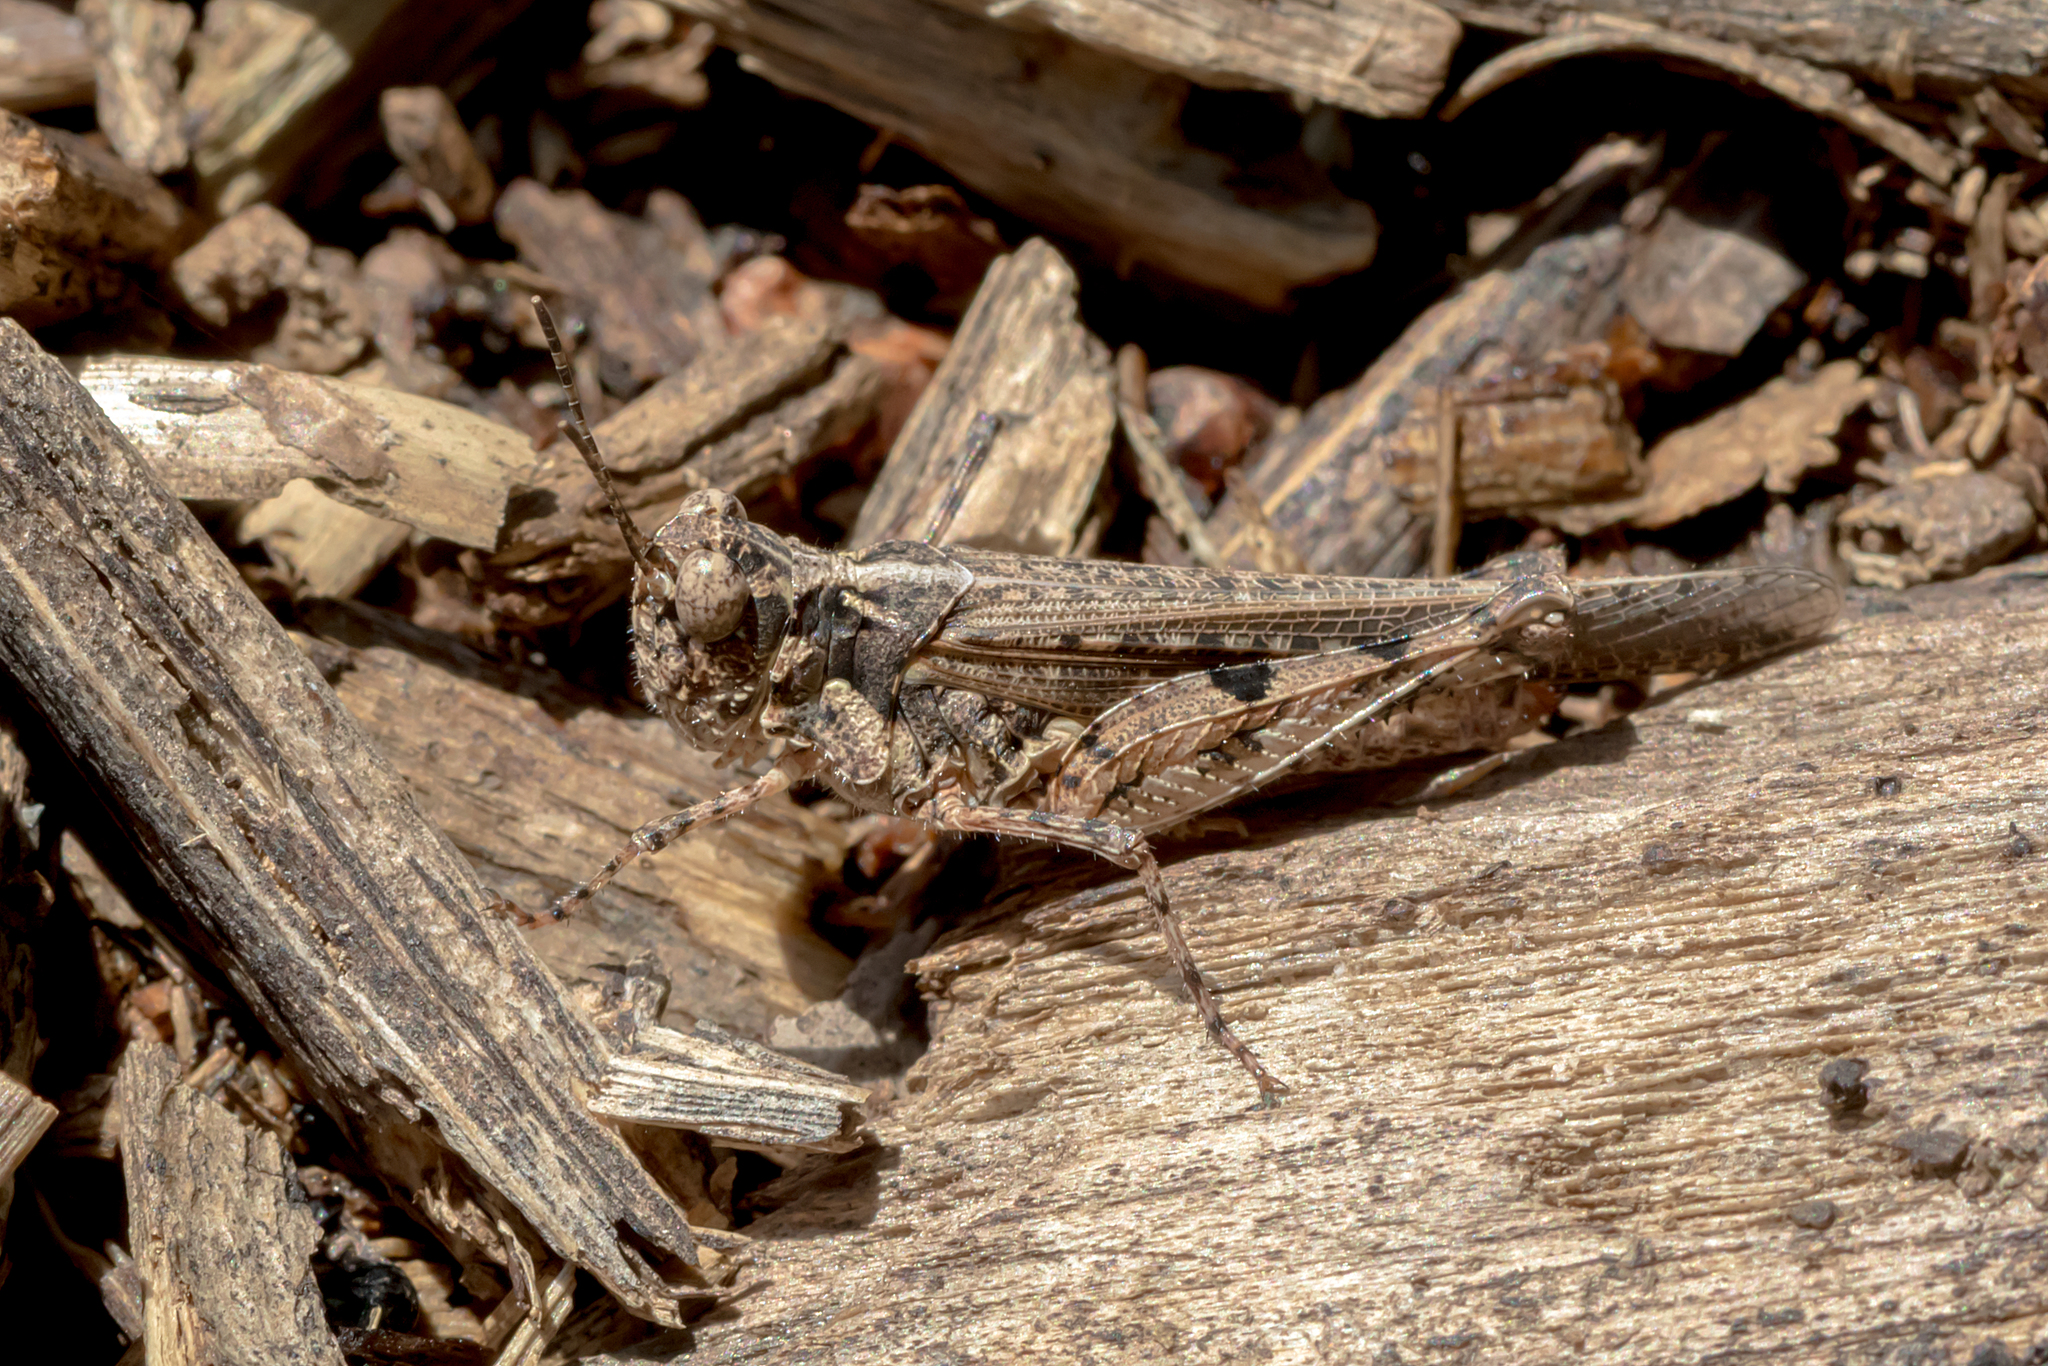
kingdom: Animalia
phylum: Arthropoda
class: Insecta
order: Orthoptera
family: Acrididae
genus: Pycnostictus
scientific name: Pycnostictus seriatus
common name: Common bandwing
